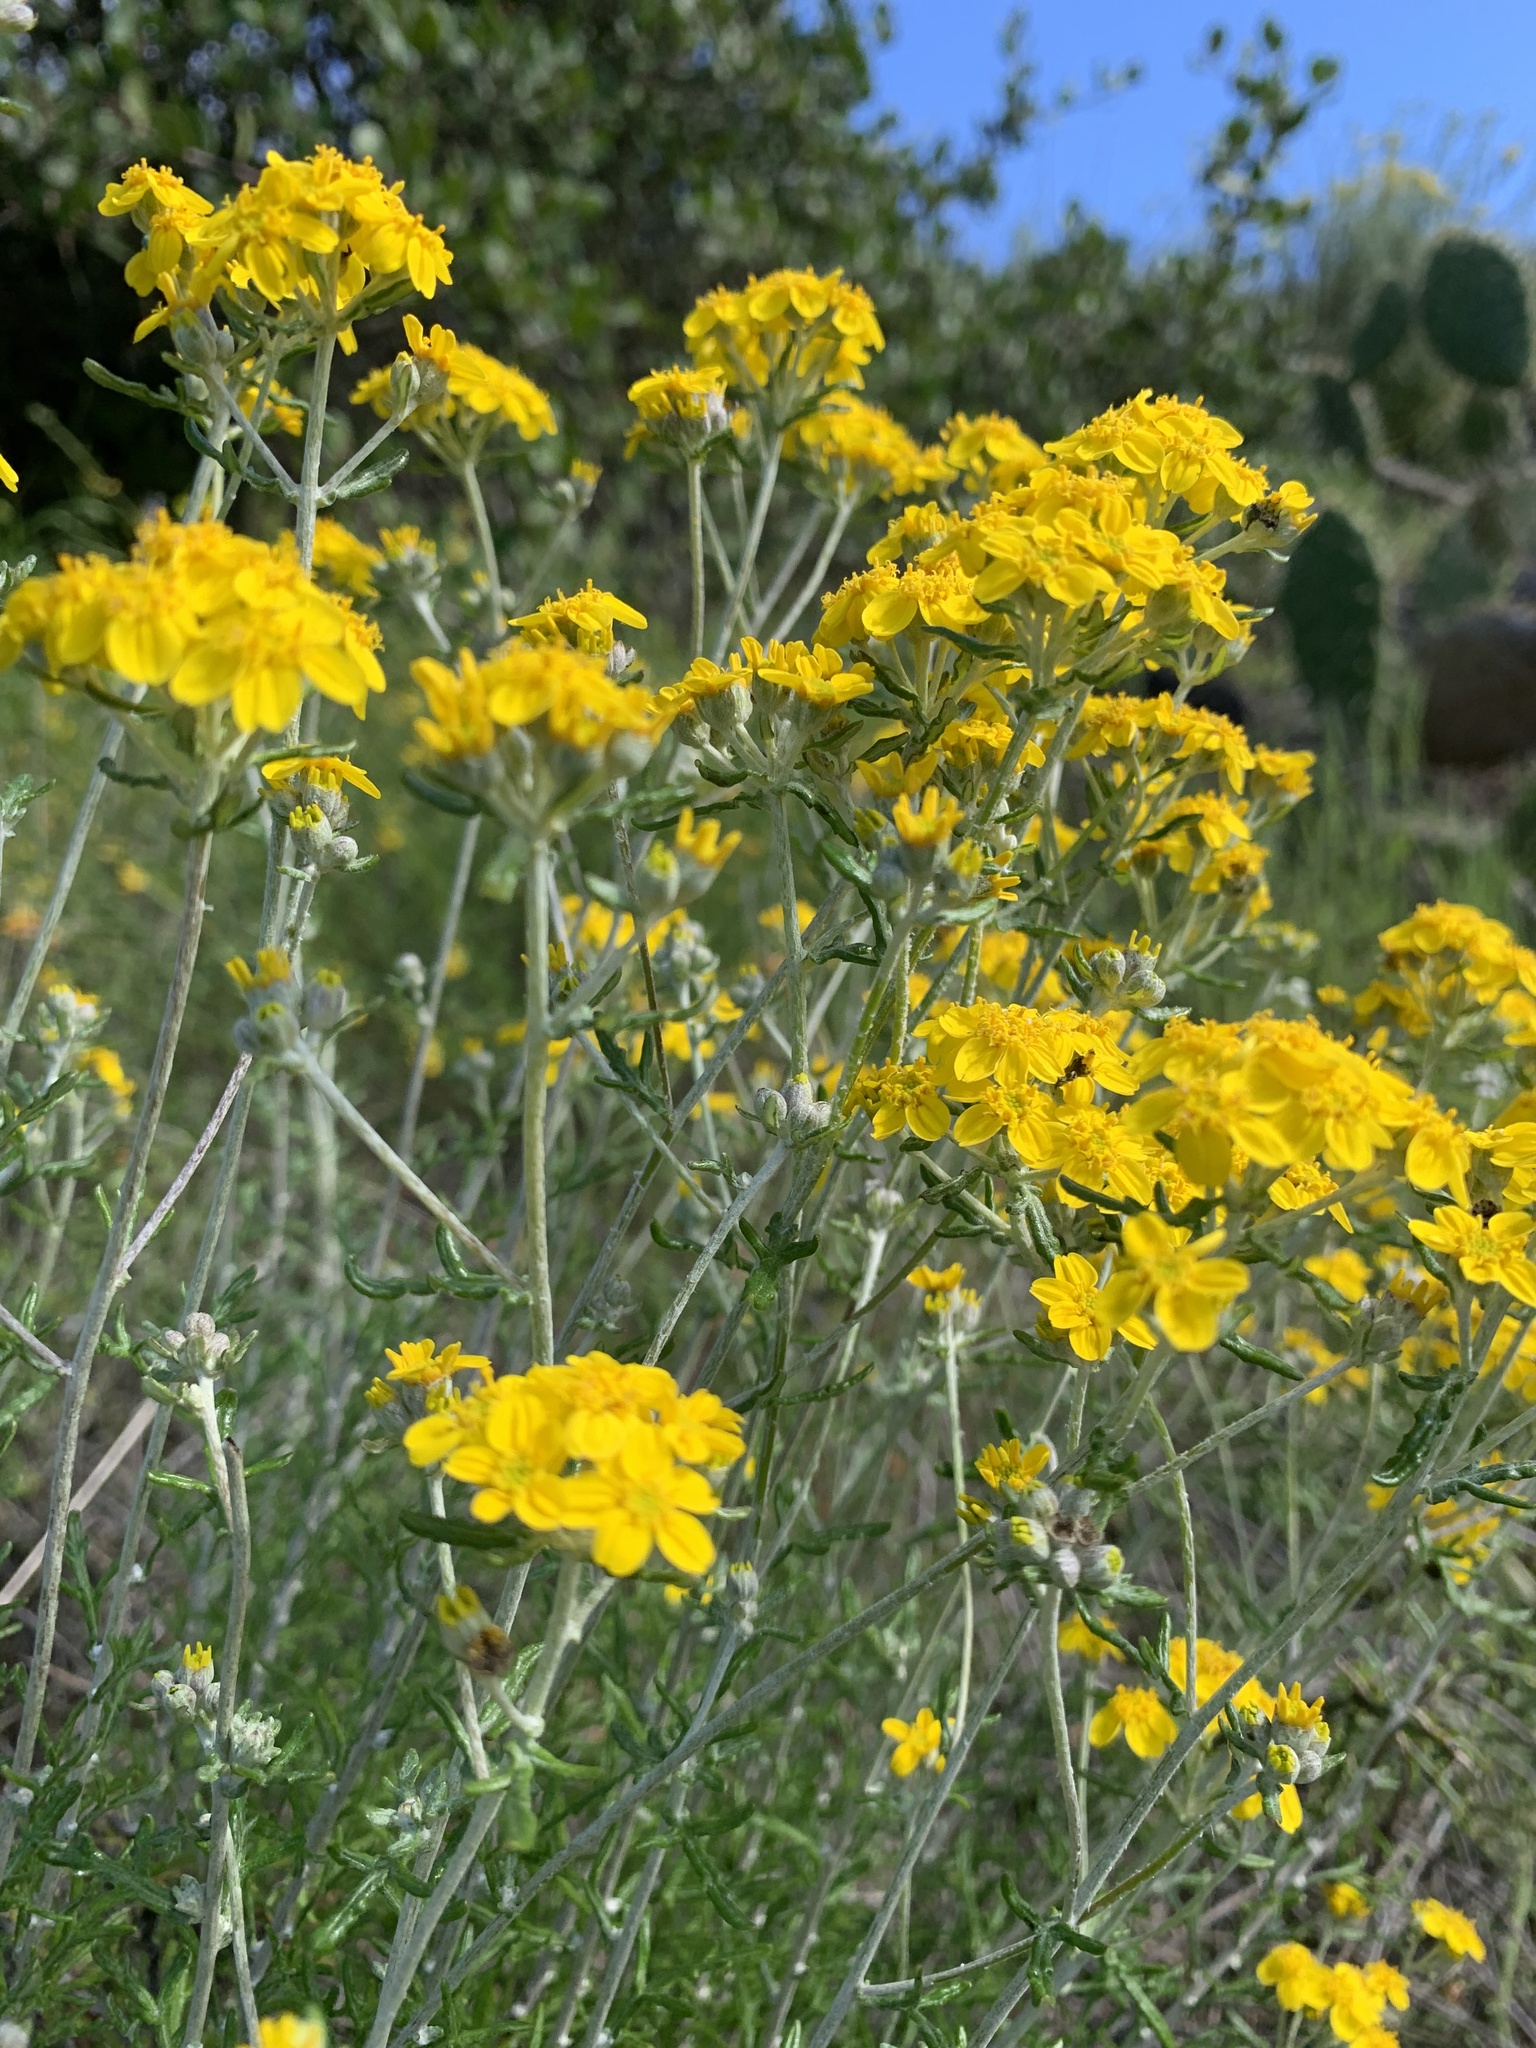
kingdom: Plantae
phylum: Tracheophyta
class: Magnoliopsida
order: Asterales
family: Asteraceae
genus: Eriophyllum
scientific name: Eriophyllum confertiflorum
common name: Golden-yarrow
